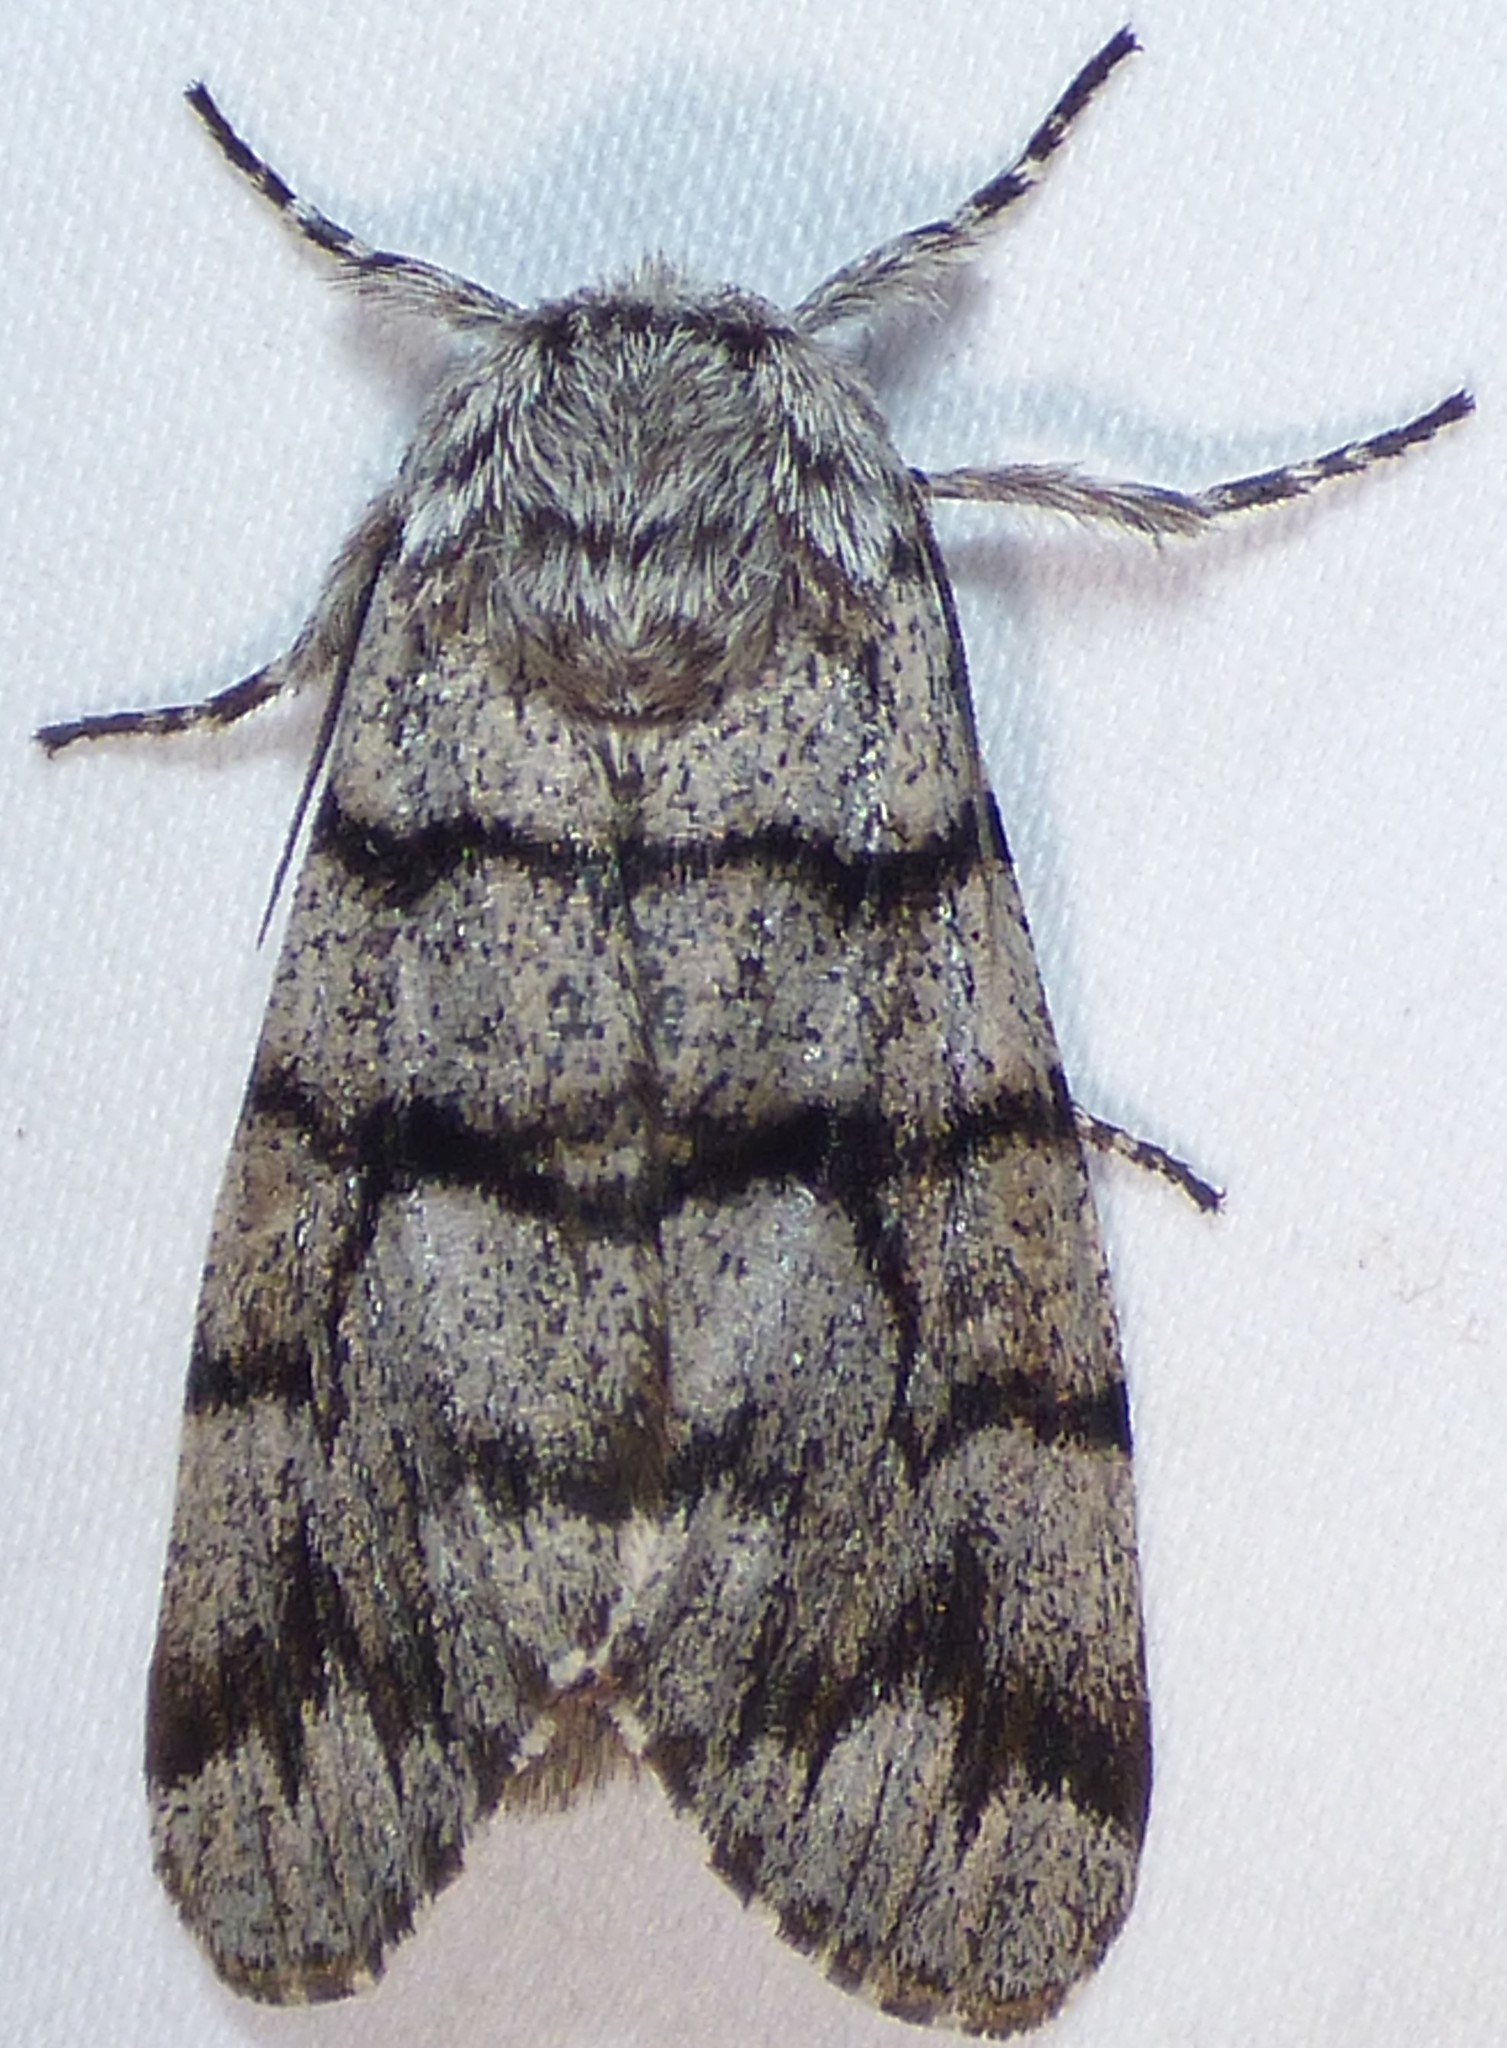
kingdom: Animalia
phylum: Arthropoda
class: Insecta
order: Lepidoptera
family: Noctuidae
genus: Panthea
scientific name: Panthea furcilla
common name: Eastern panthea moth
